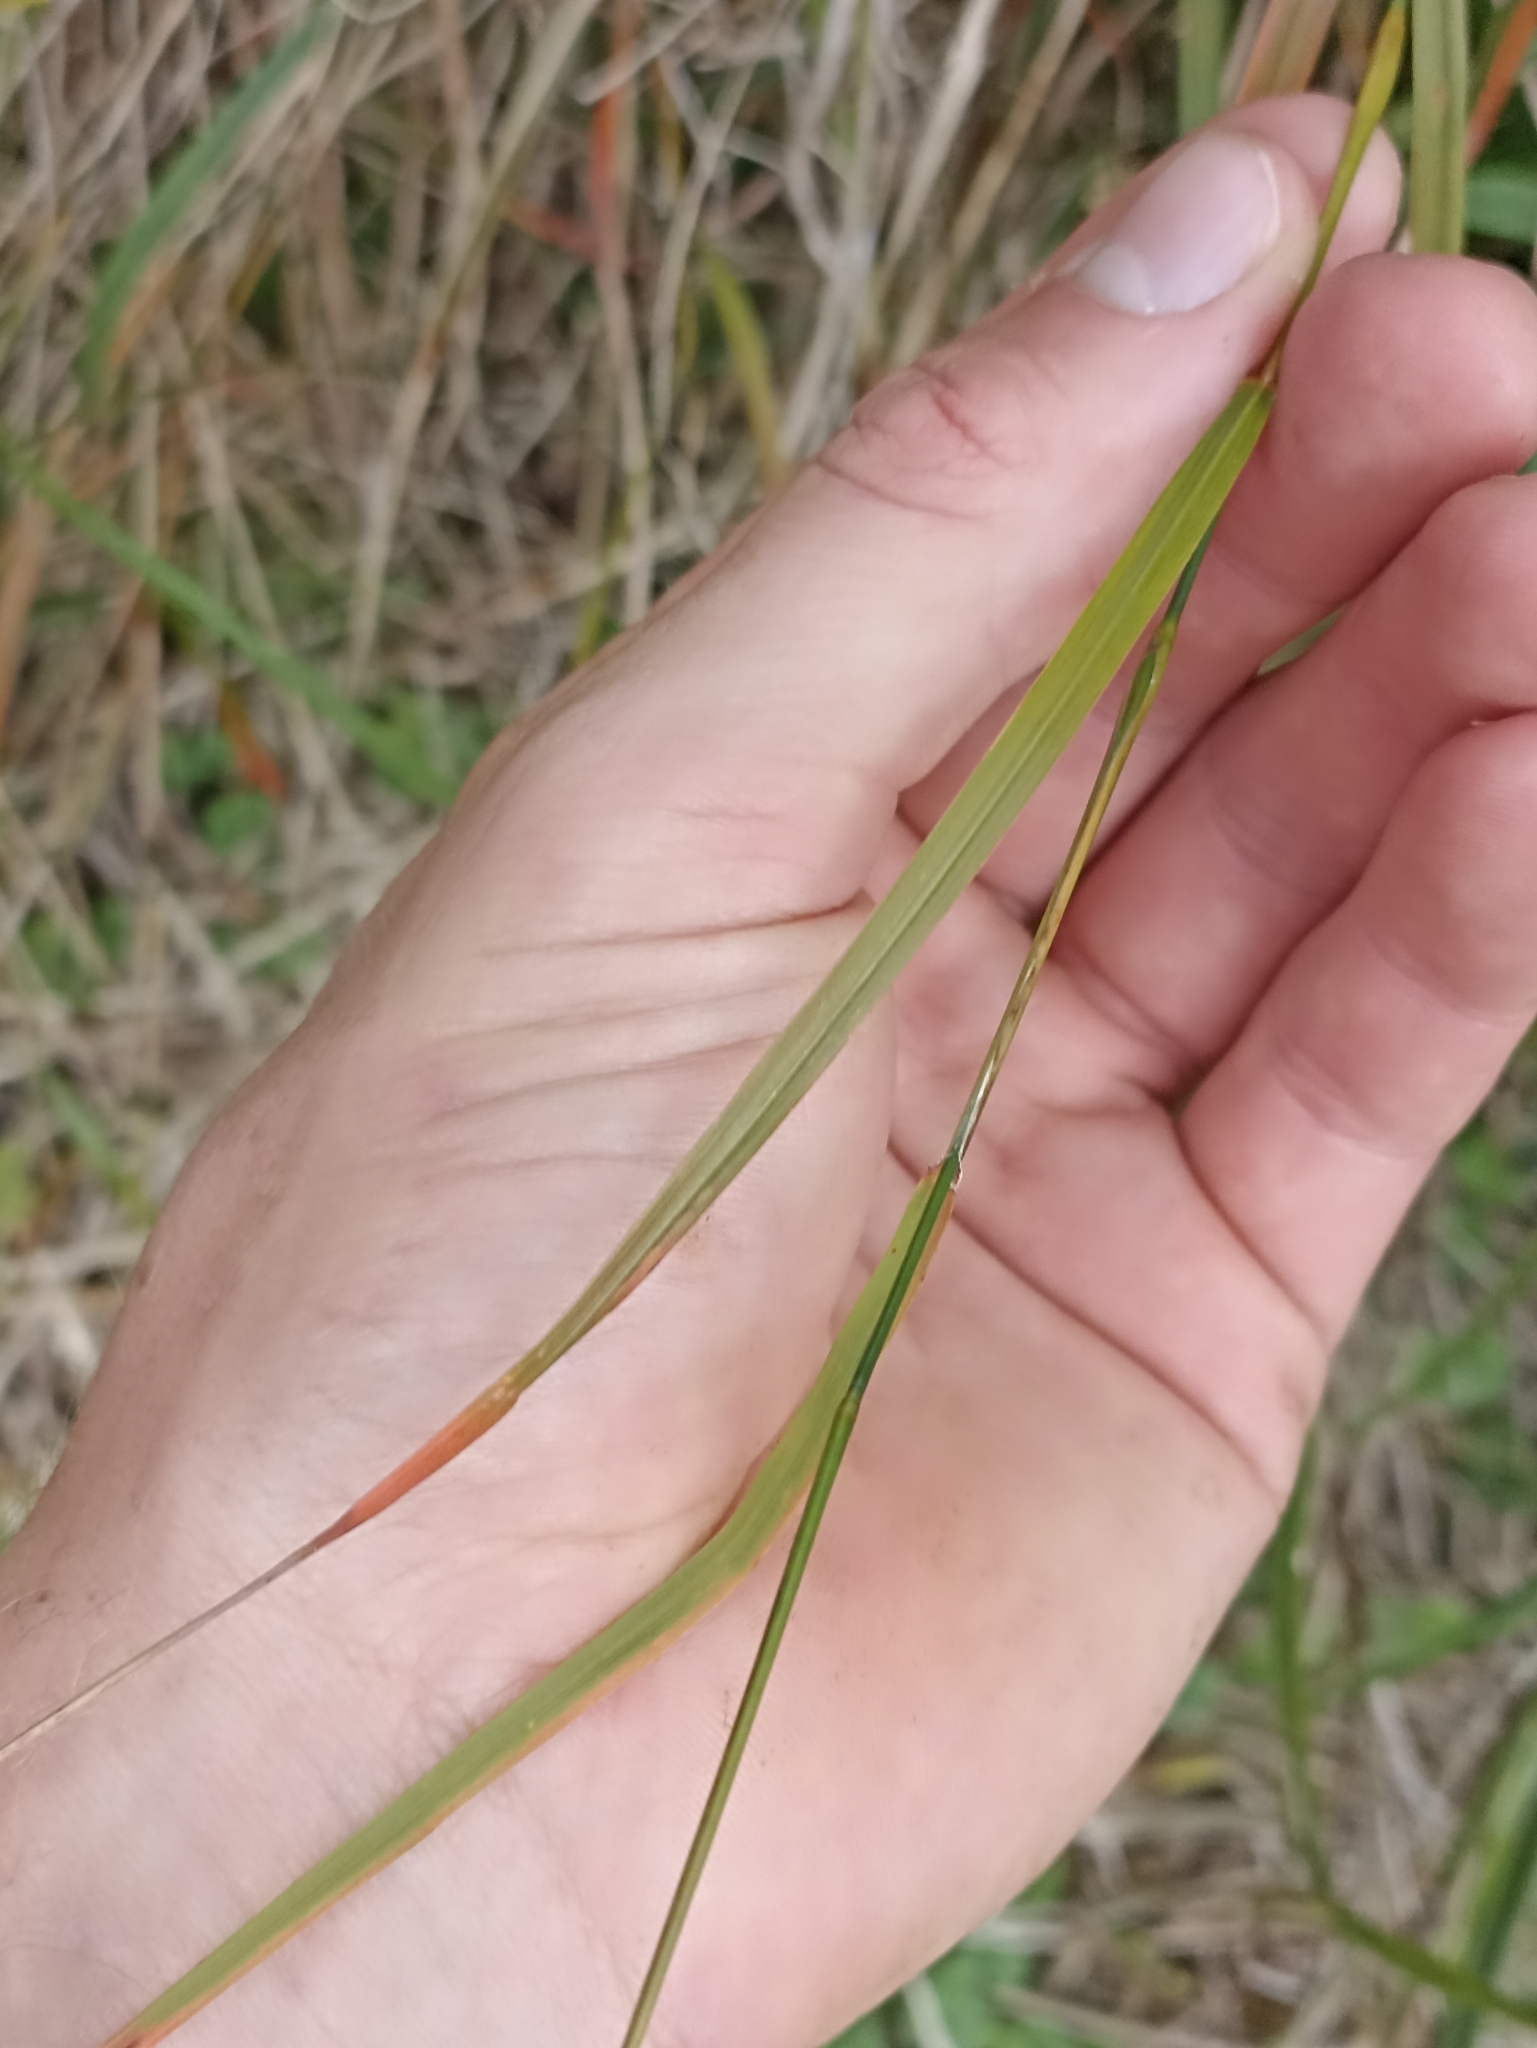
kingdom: Plantae
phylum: Tracheophyta
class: Liliopsida
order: Poales
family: Poaceae
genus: Microlaena
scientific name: Microlaena polynoda
